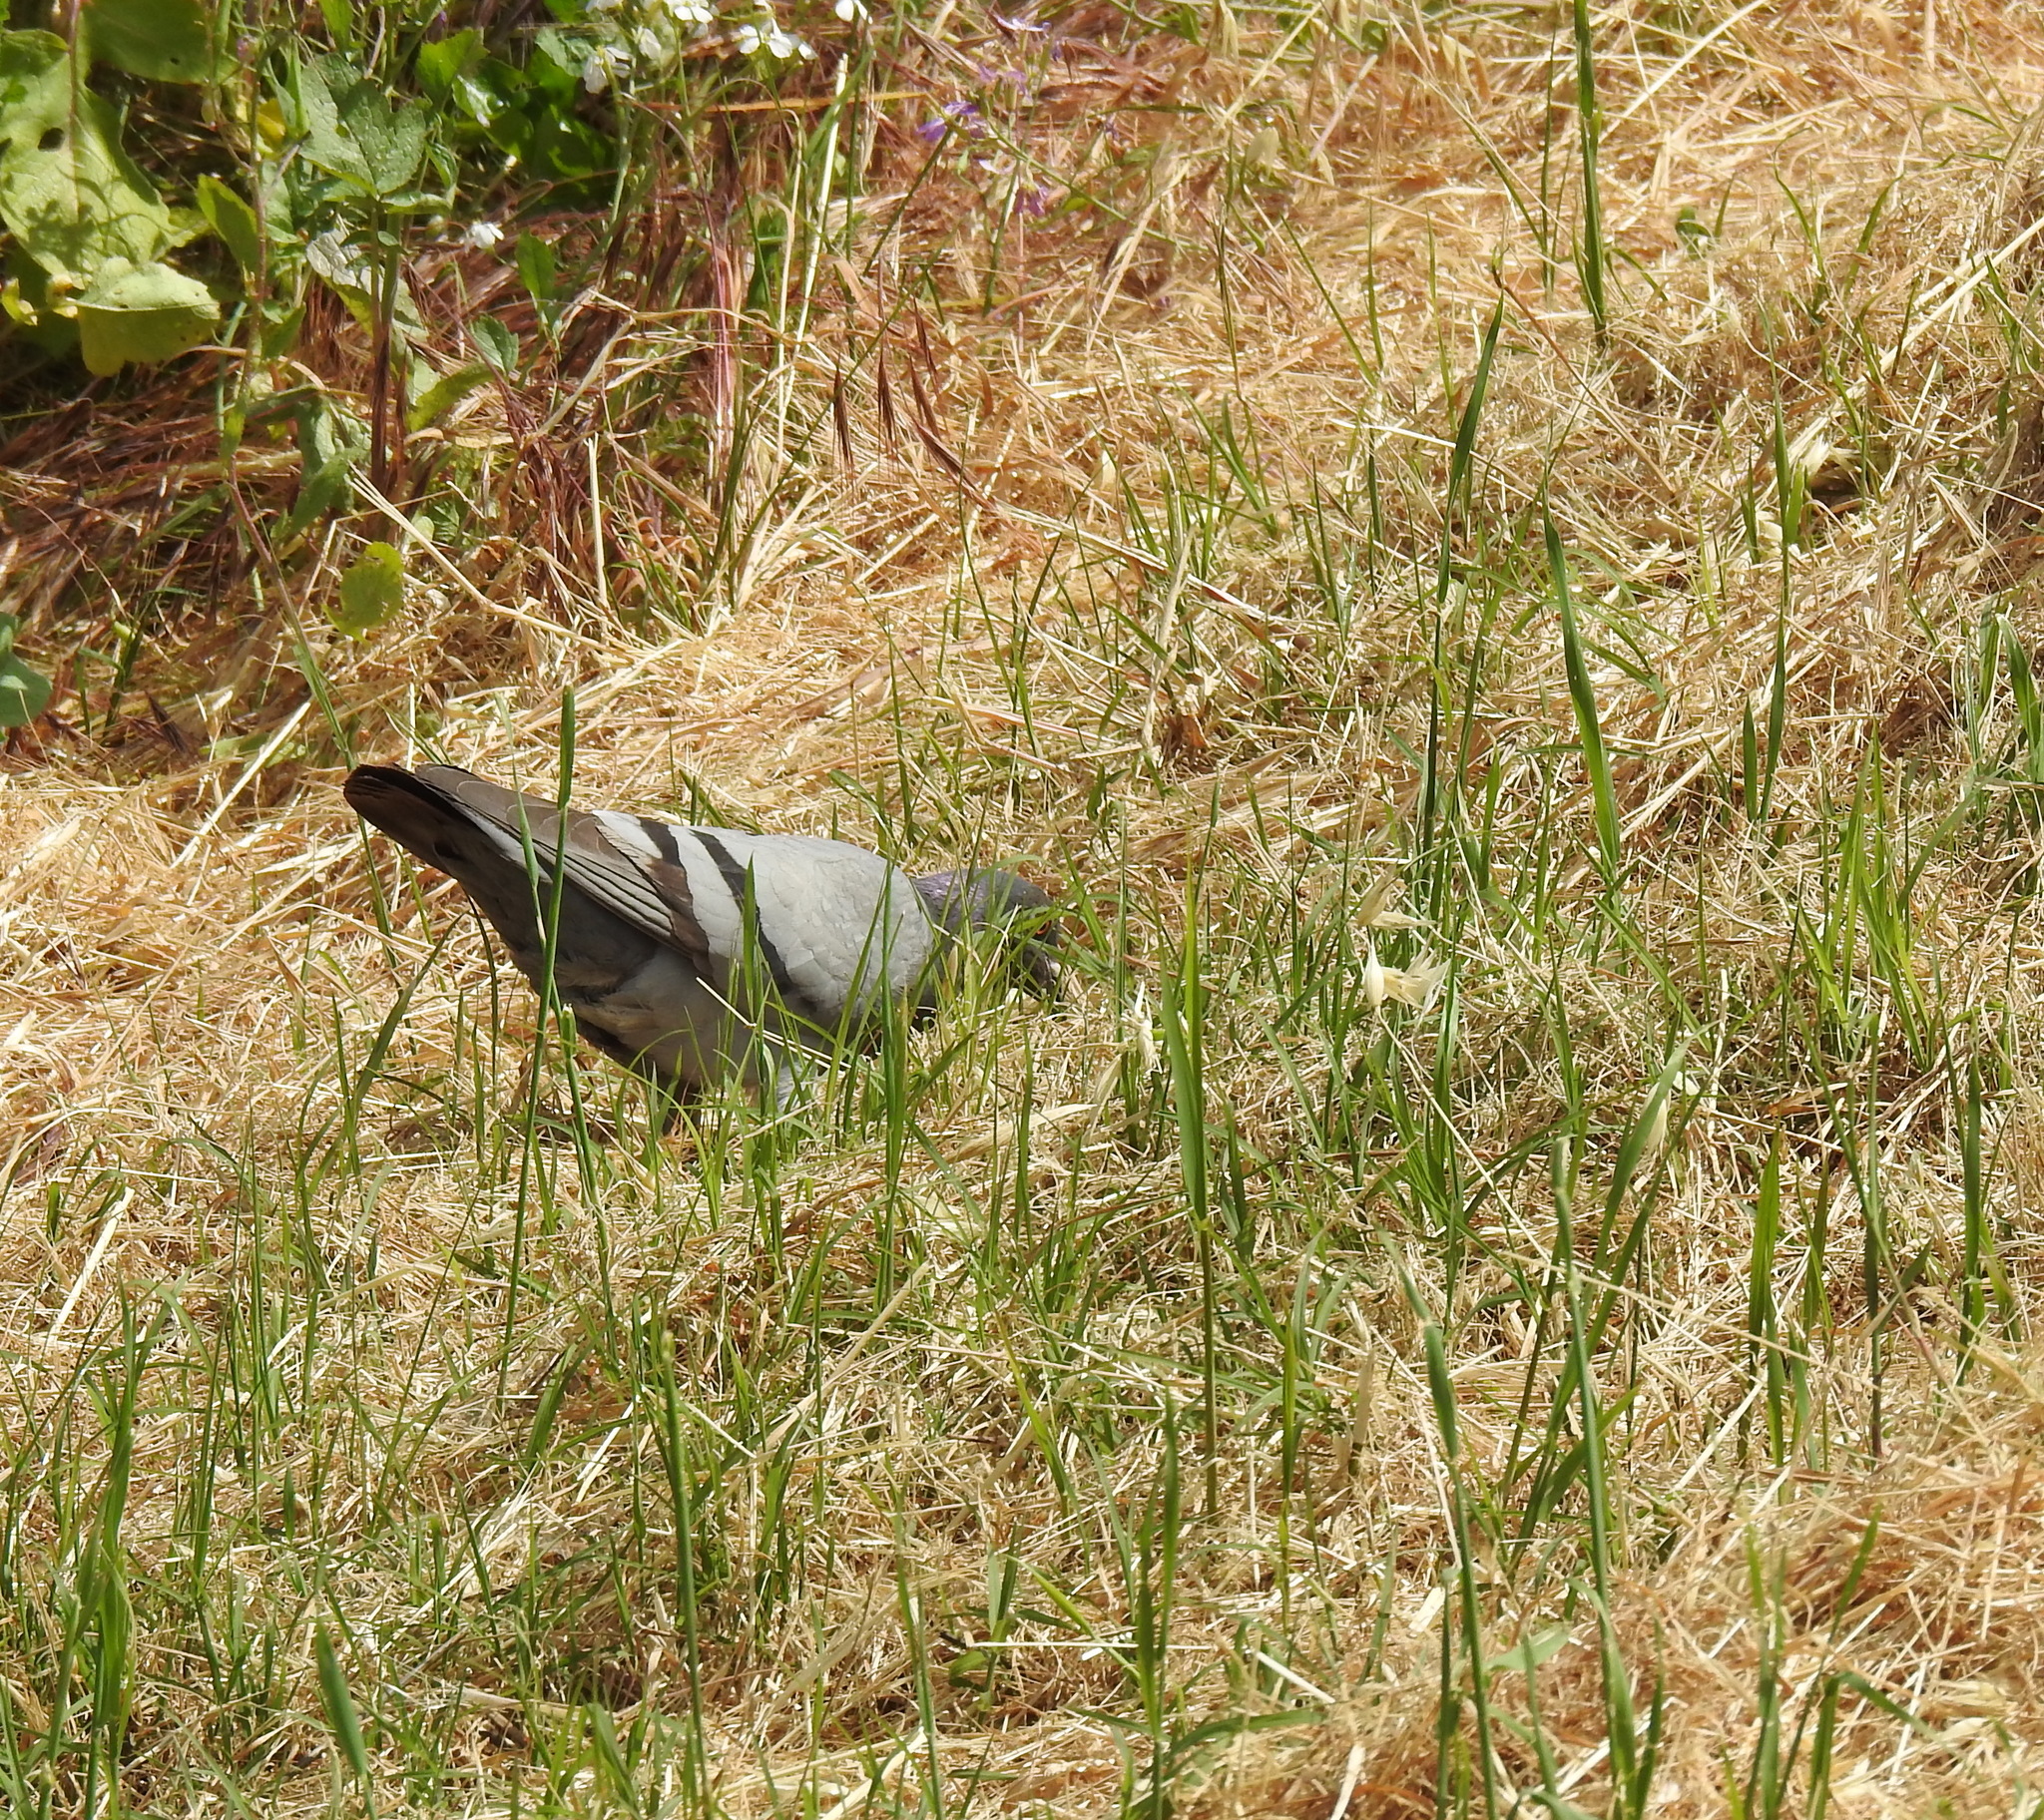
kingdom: Animalia
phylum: Chordata
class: Aves
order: Columbiformes
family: Columbidae
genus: Columba
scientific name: Columba livia
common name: Rock pigeon
